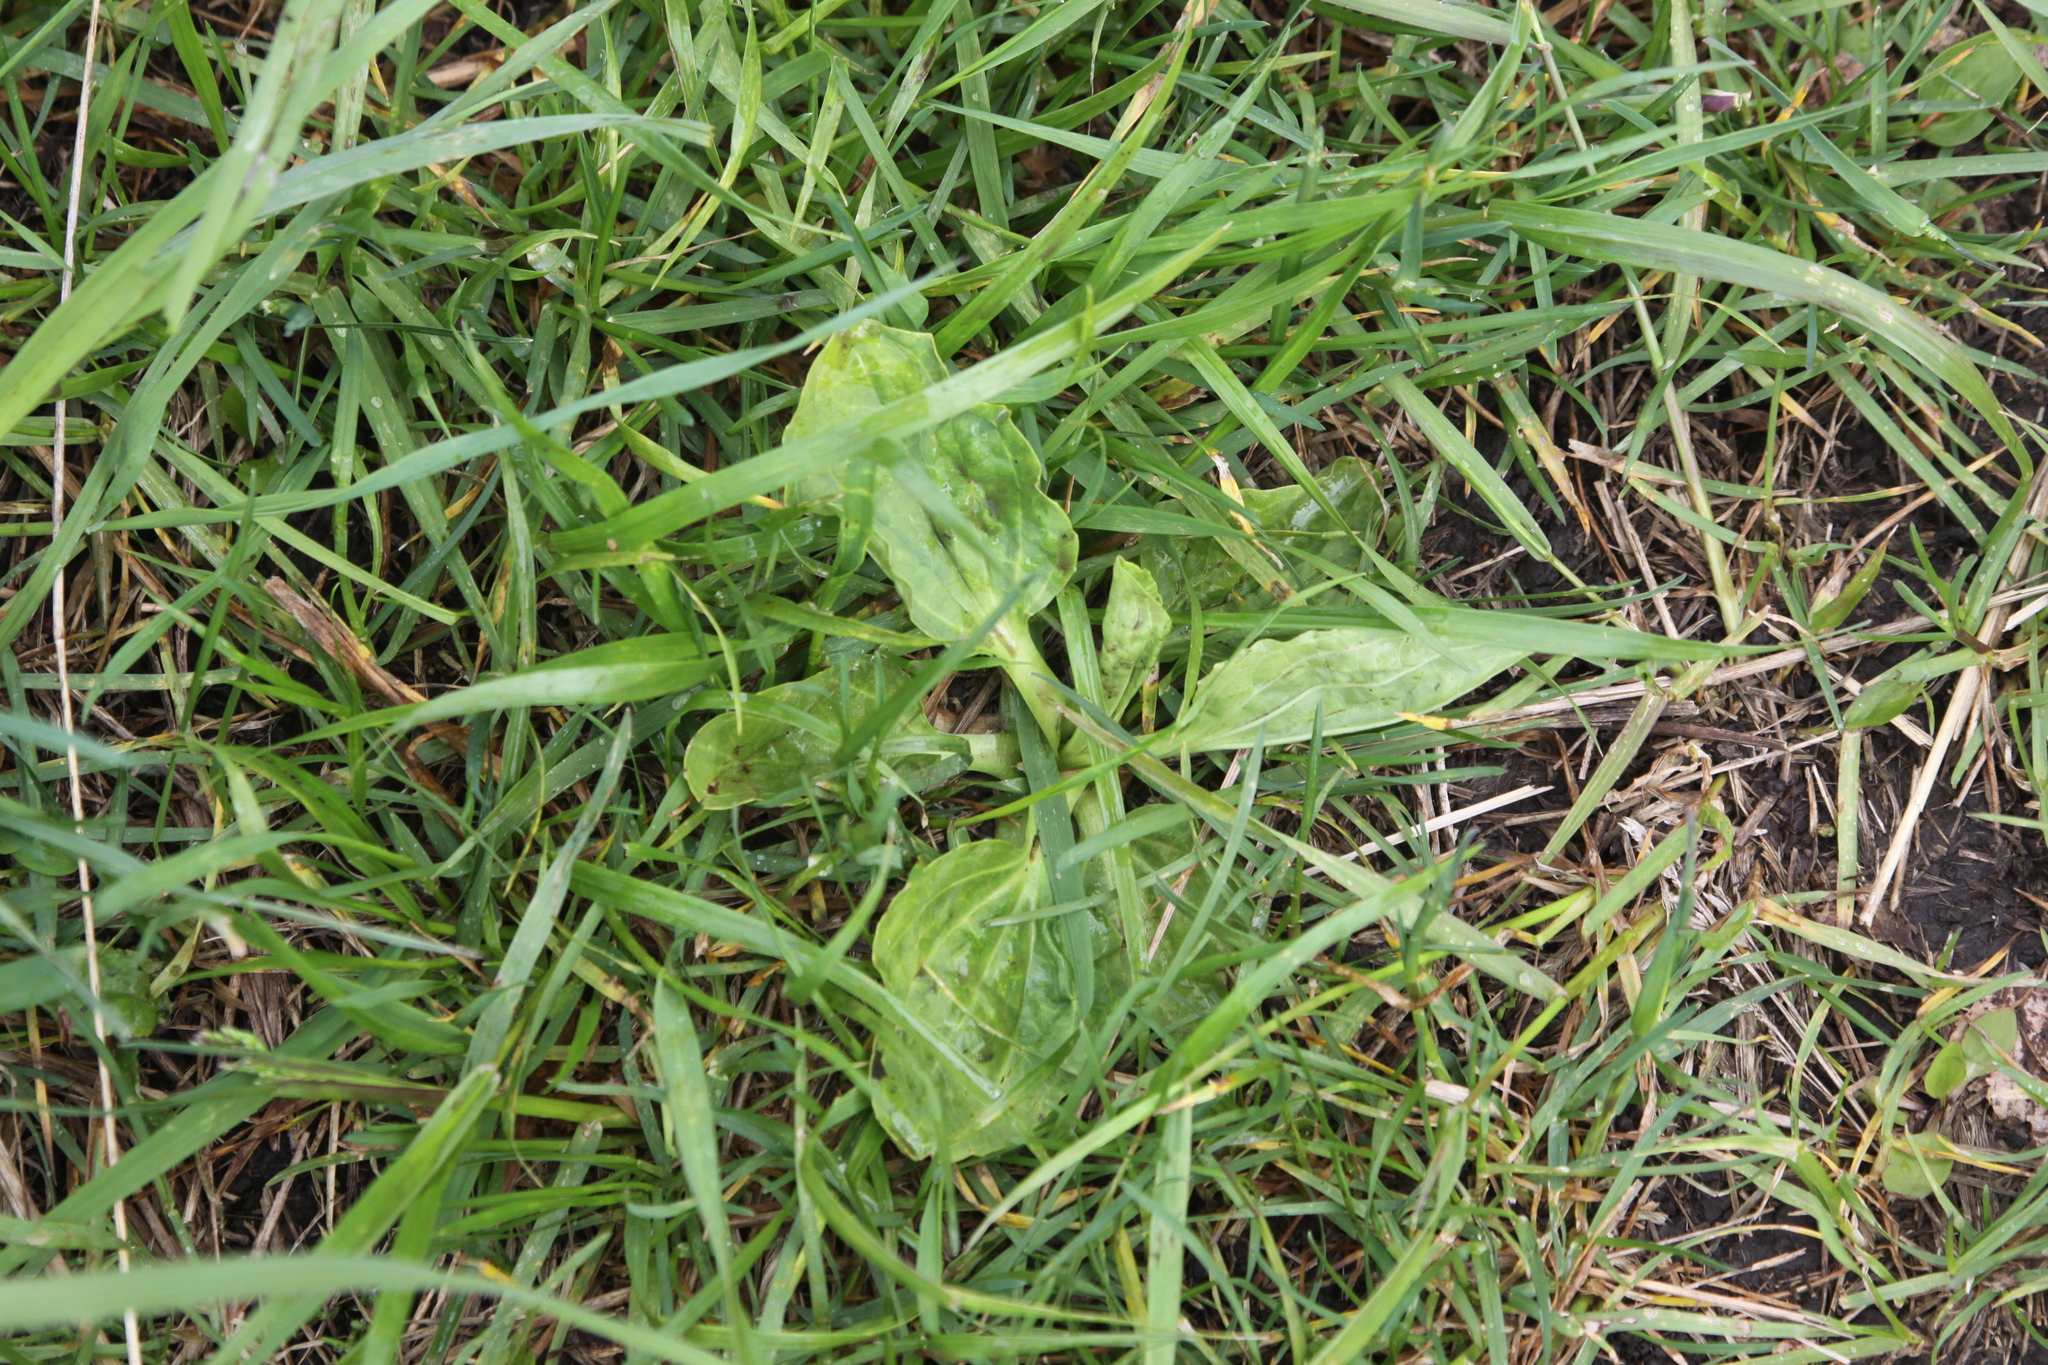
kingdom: Plantae
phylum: Tracheophyta
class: Magnoliopsida
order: Lamiales
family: Plantaginaceae
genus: Plantago
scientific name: Plantago major
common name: Common plantain
